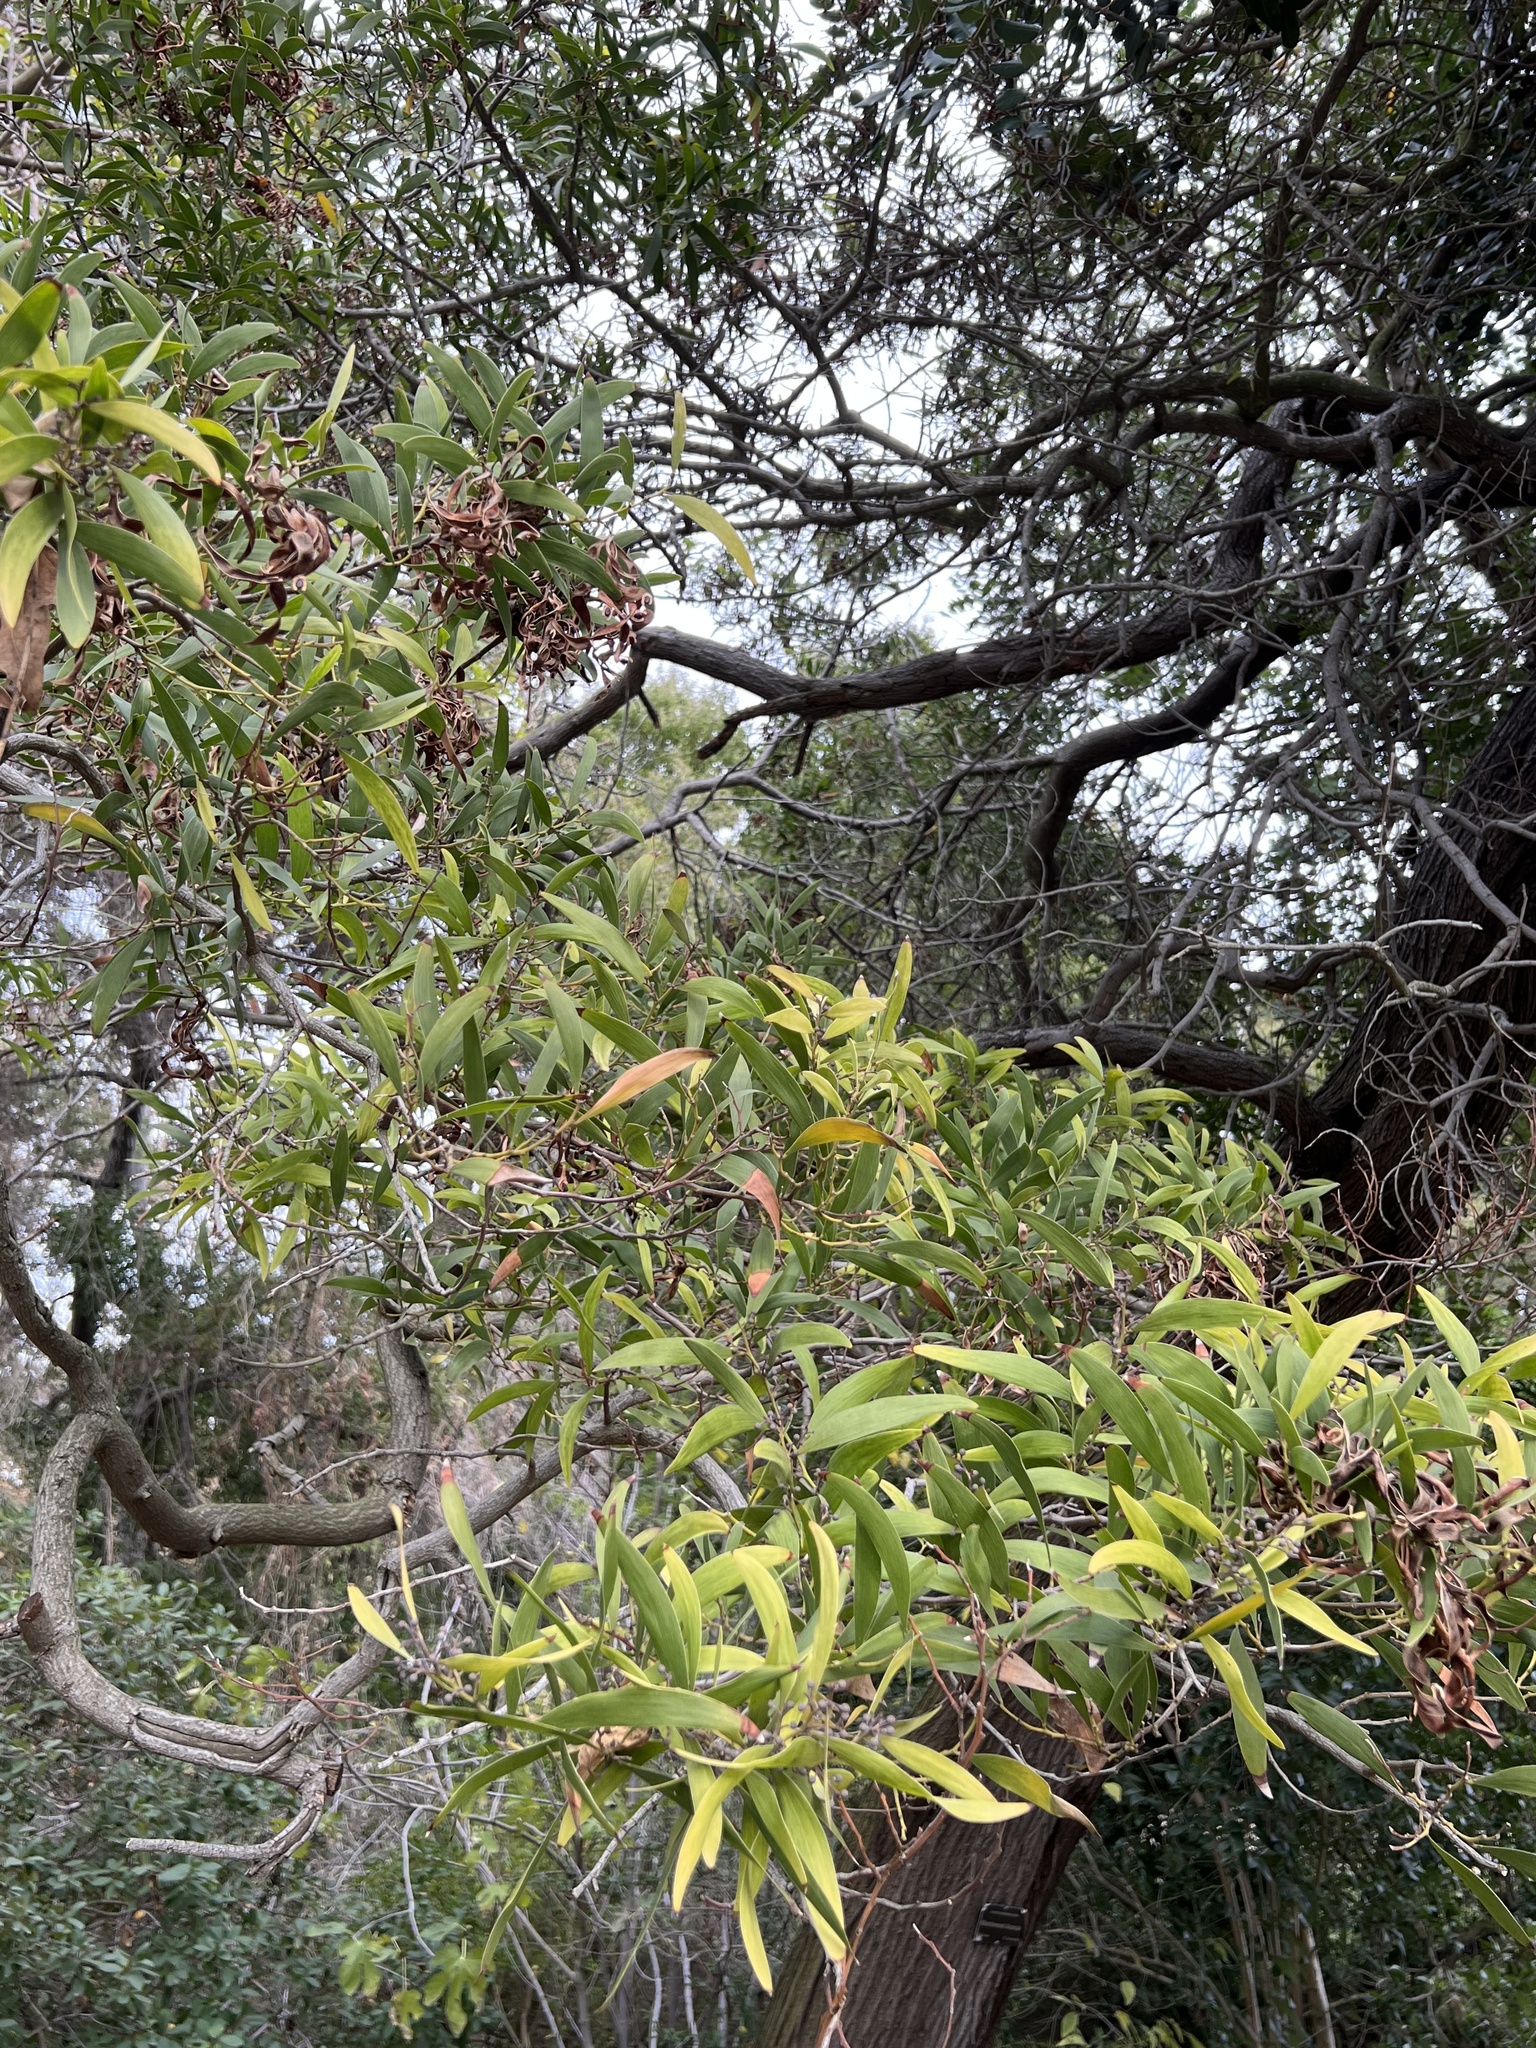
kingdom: Plantae
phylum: Tracheophyta
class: Magnoliopsida
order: Fabales
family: Fabaceae
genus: Acacia
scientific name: Acacia melanoxylon
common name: Blackwood
